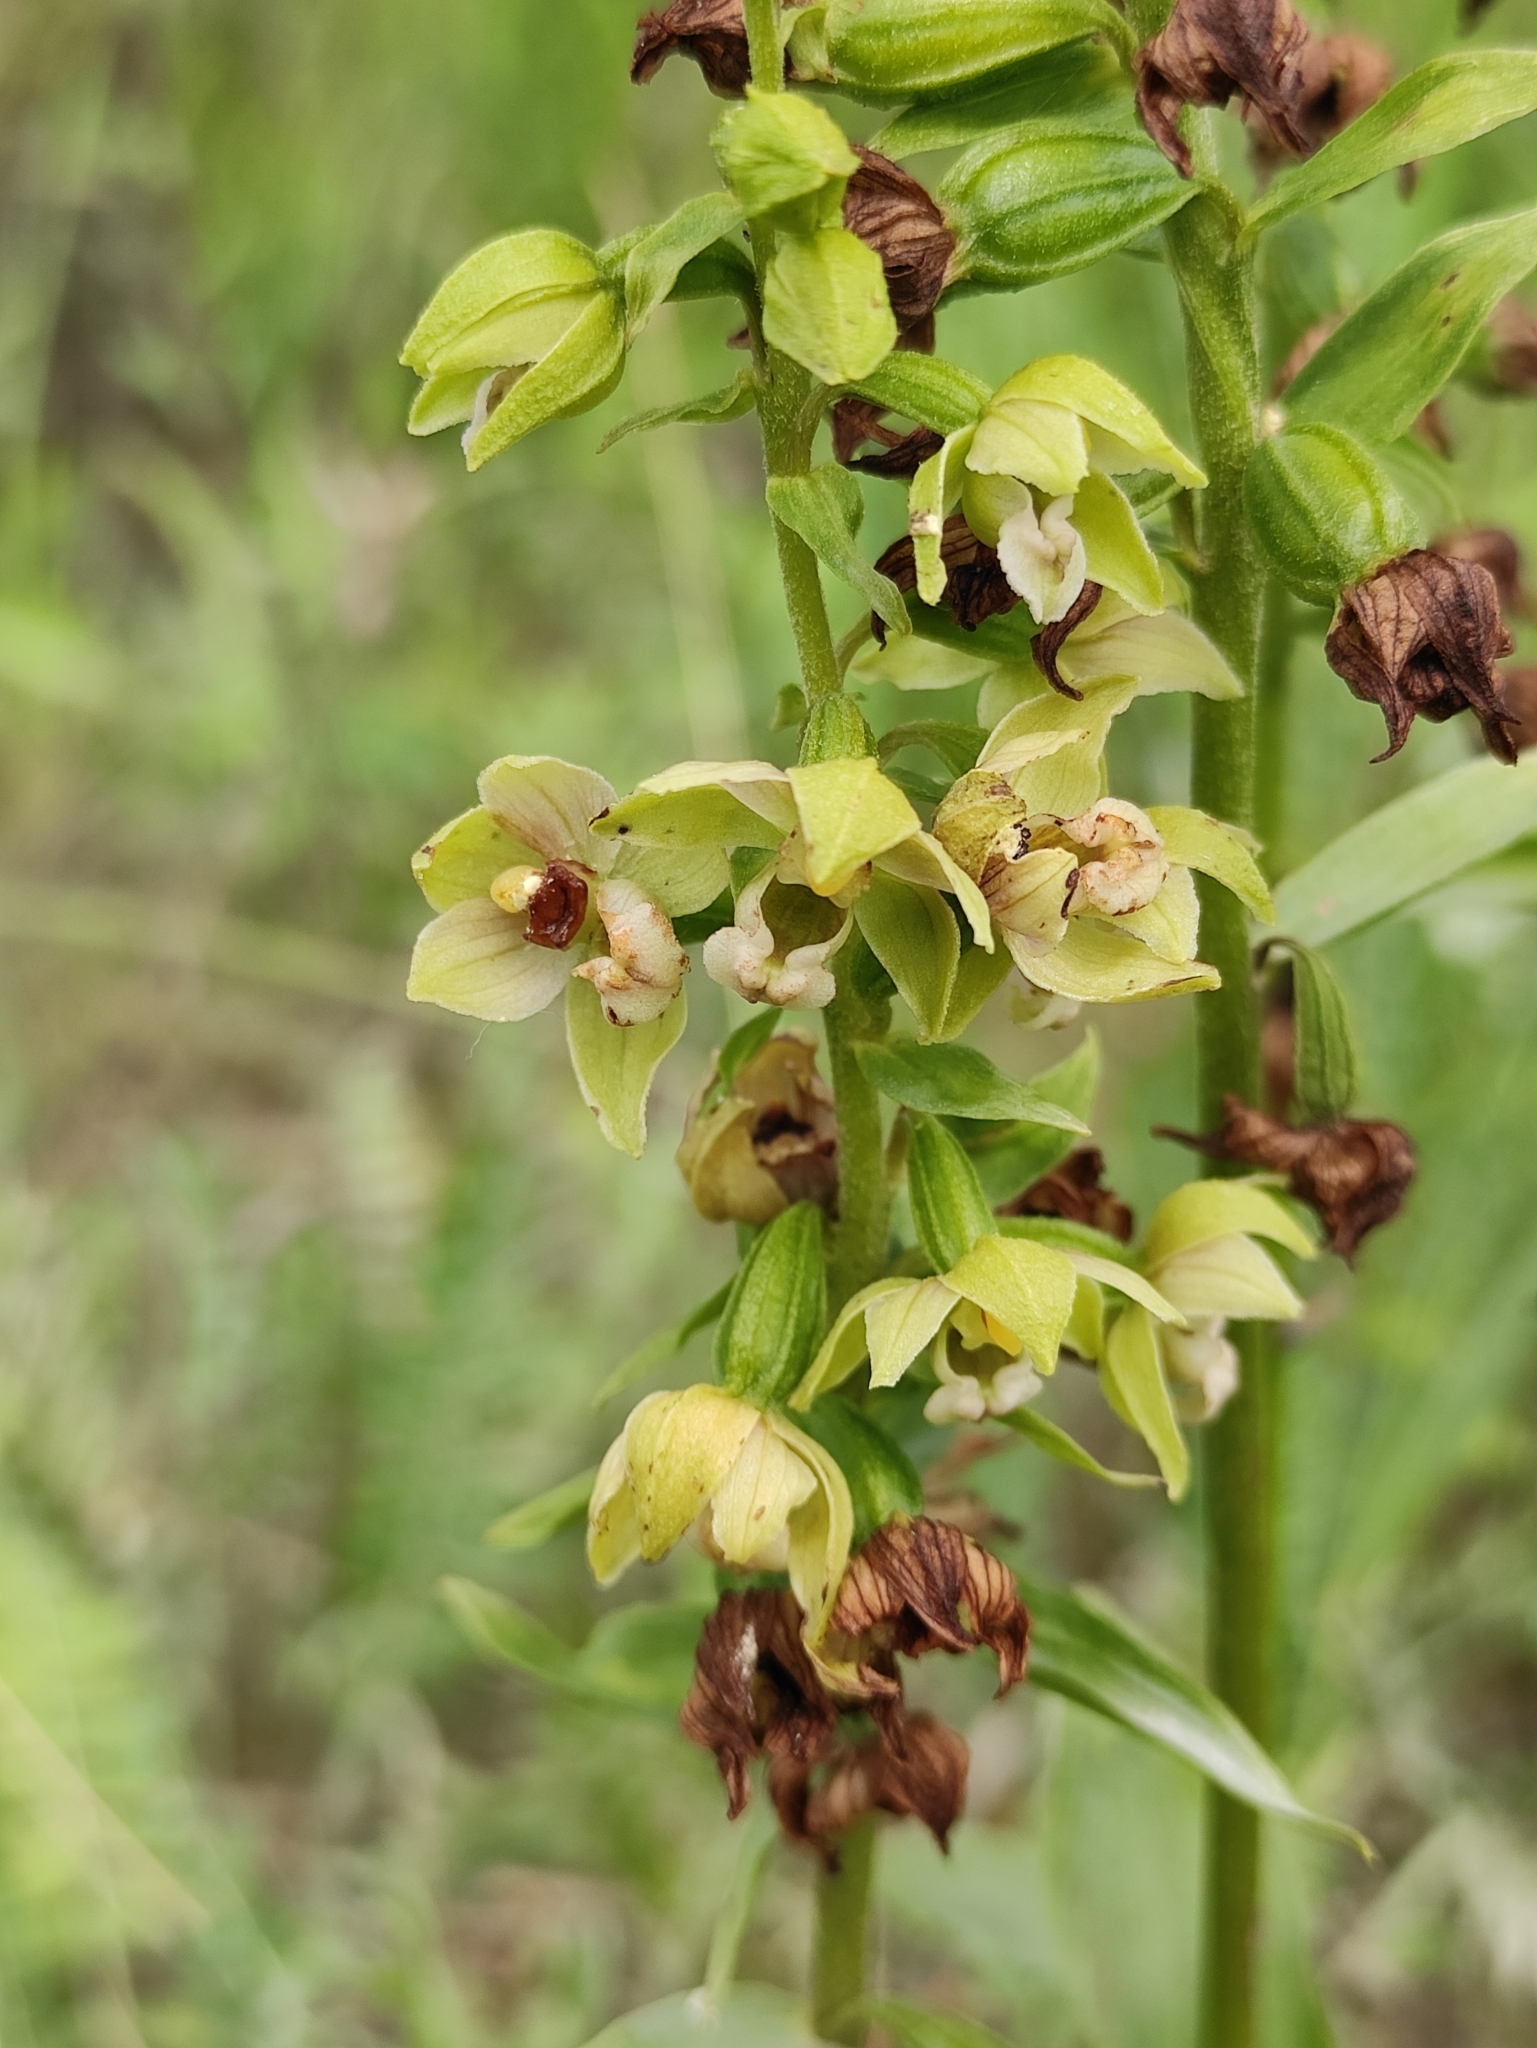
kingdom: Plantae
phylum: Tracheophyta
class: Liliopsida
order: Asparagales
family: Orchidaceae
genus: Epipactis
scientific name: Epipactis helleborine
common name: Broad-leaved helleborine
